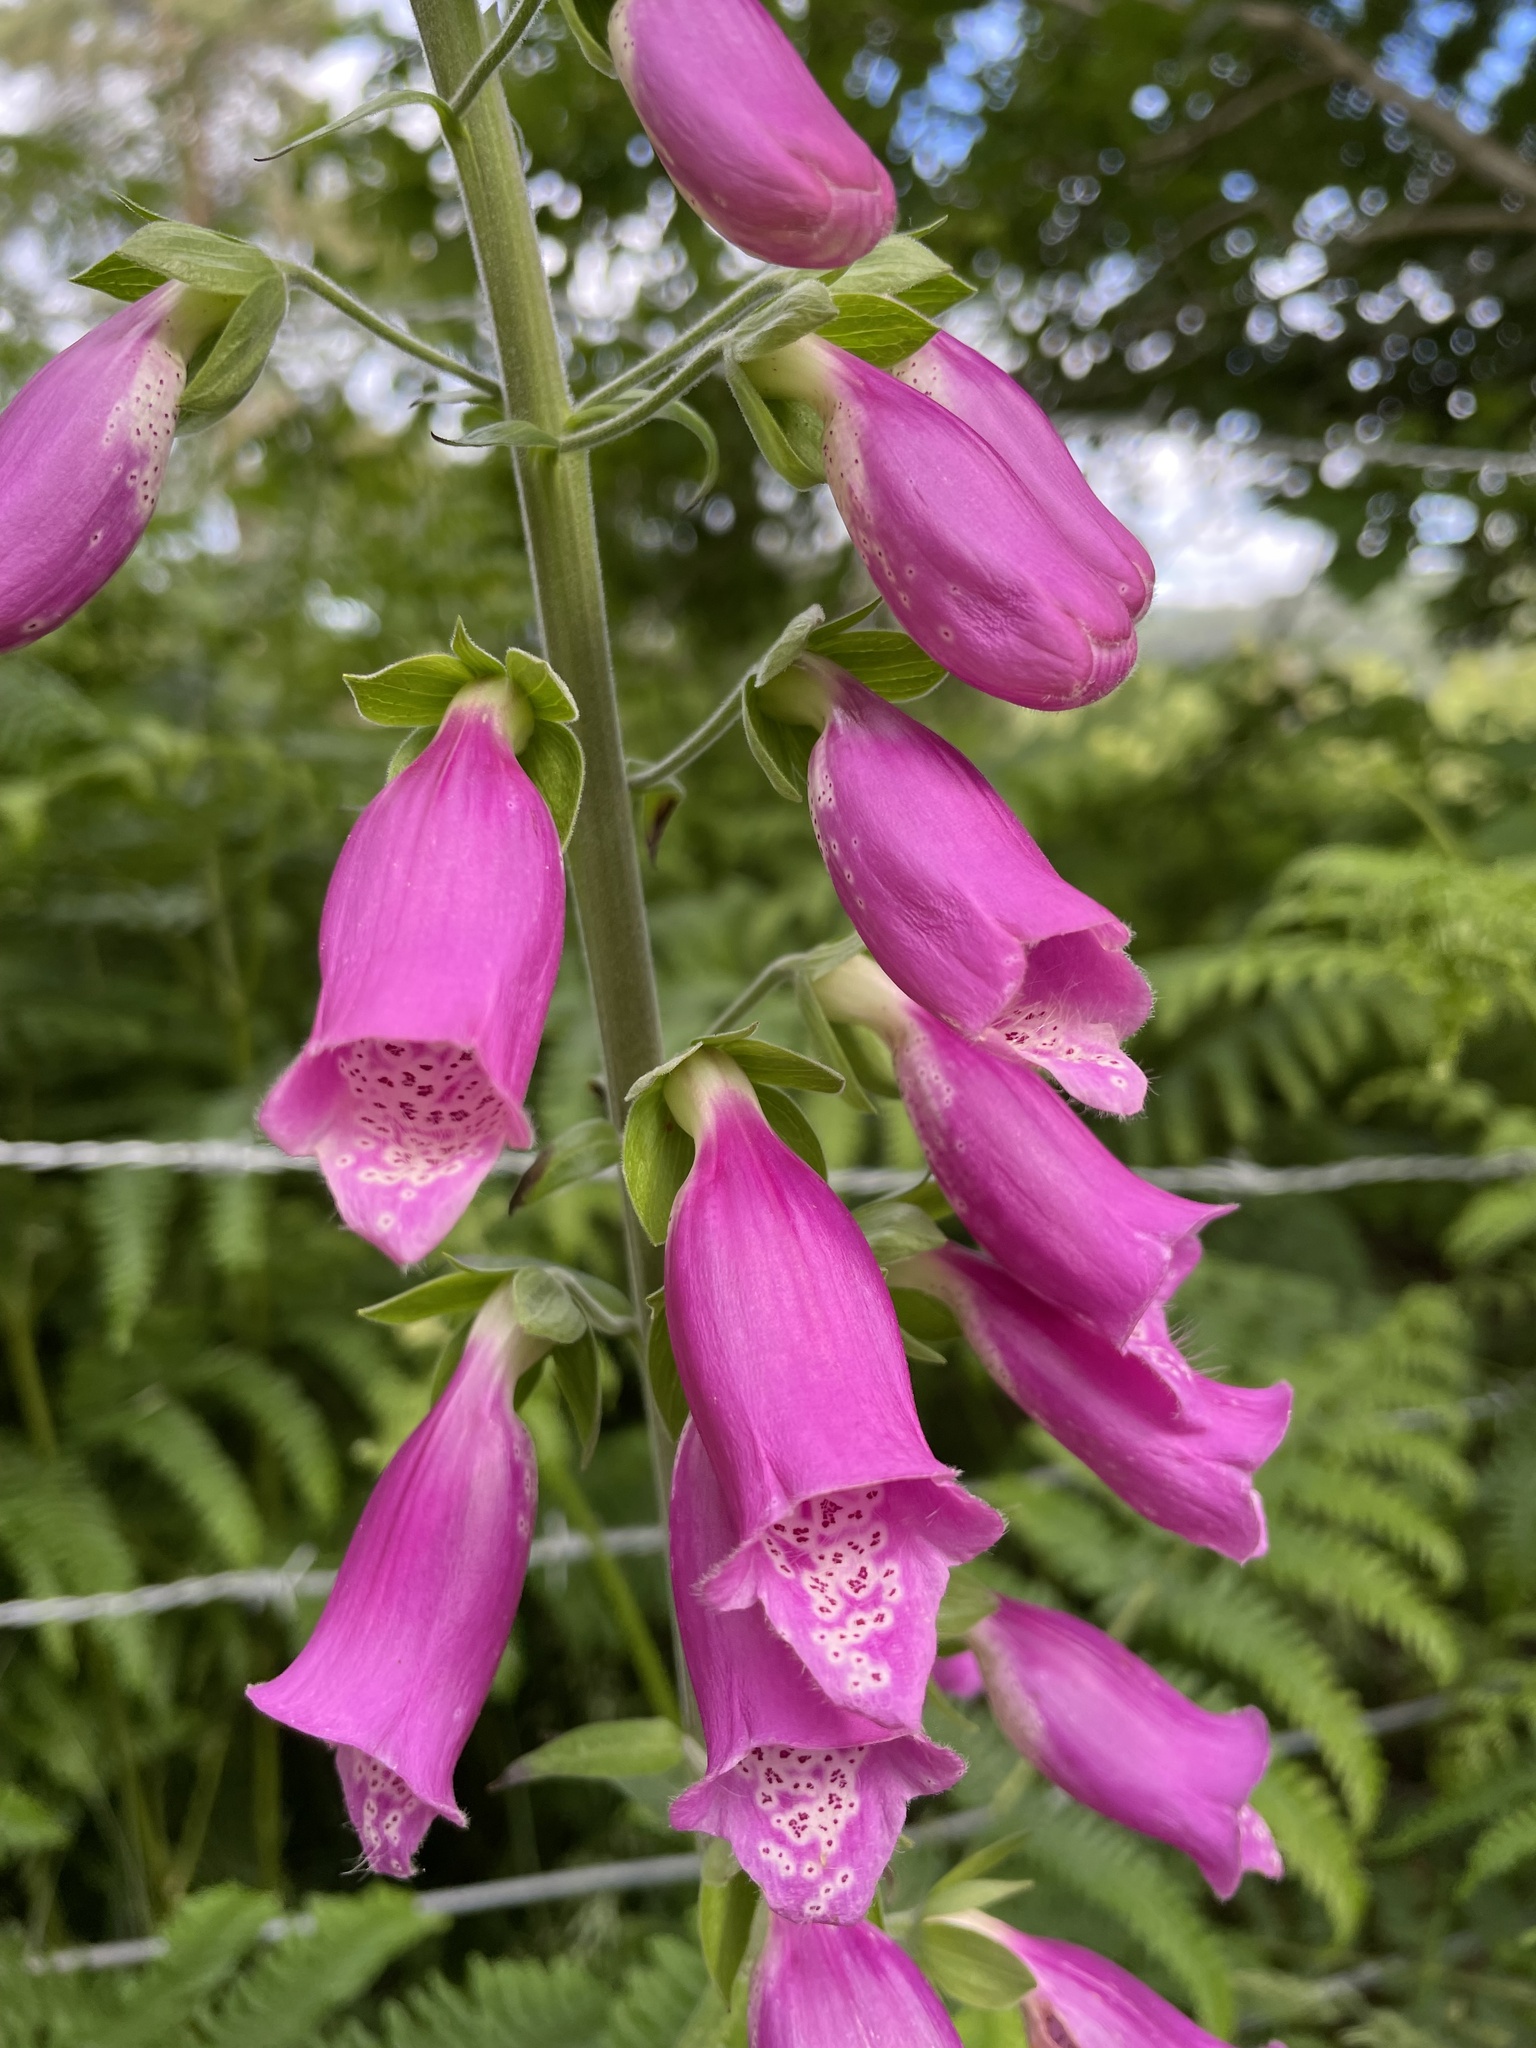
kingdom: Plantae
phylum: Tracheophyta
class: Magnoliopsida
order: Lamiales
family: Plantaginaceae
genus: Digitalis
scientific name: Digitalis purpurea
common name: Foxglove
